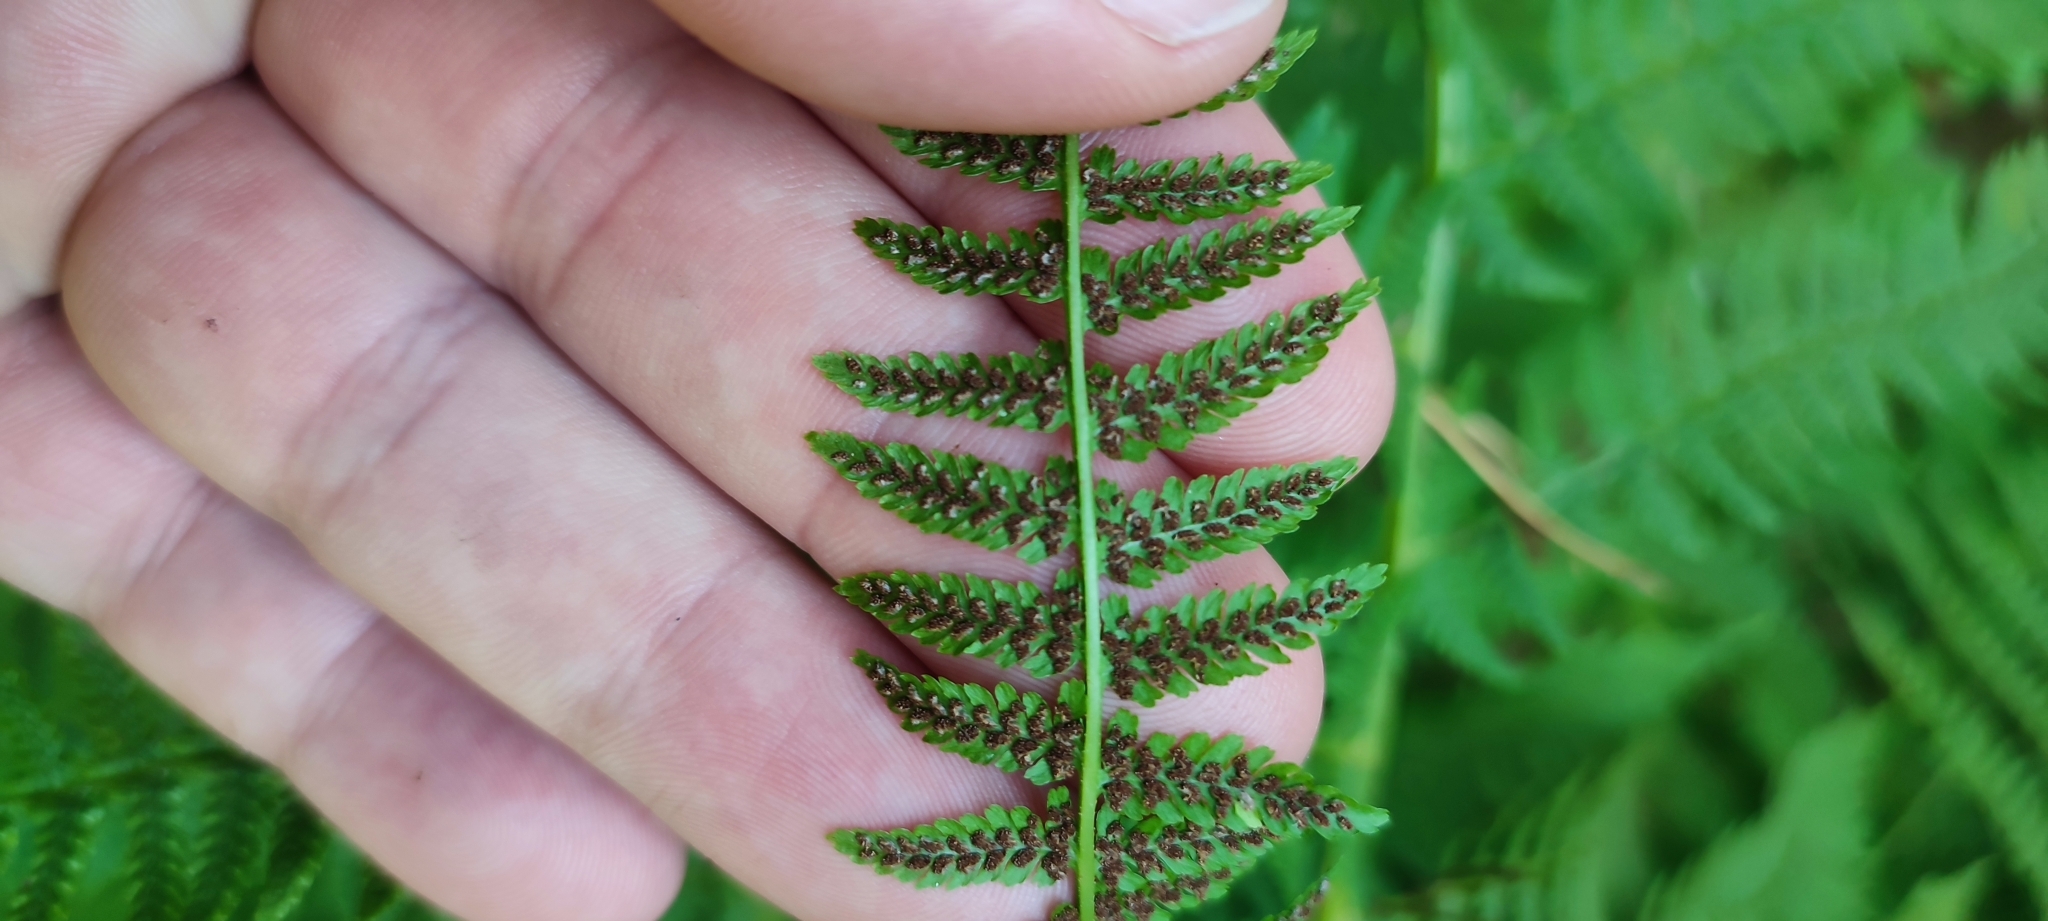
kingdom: Plantae
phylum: Tracheophyta
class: Polypodiopsida
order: Polypodiales
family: Athyriaceae
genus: Athyrium
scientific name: Athyrium filix-femina
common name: Lady fern
